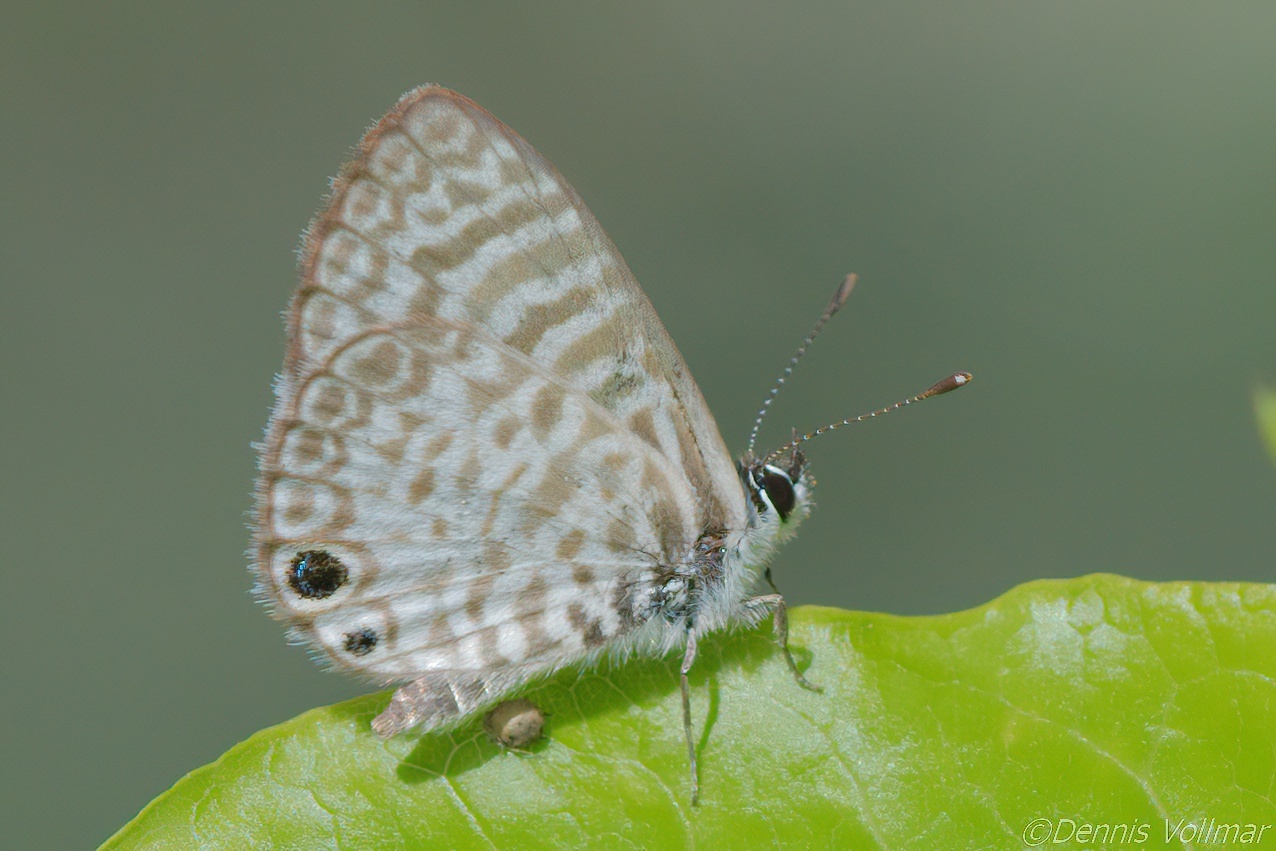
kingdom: Animalia
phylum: Arthropoda
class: Insecta
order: Lepidoptera
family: Lycaenidae
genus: Leptotes
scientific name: Leptotes cassius
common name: Cassius blue
